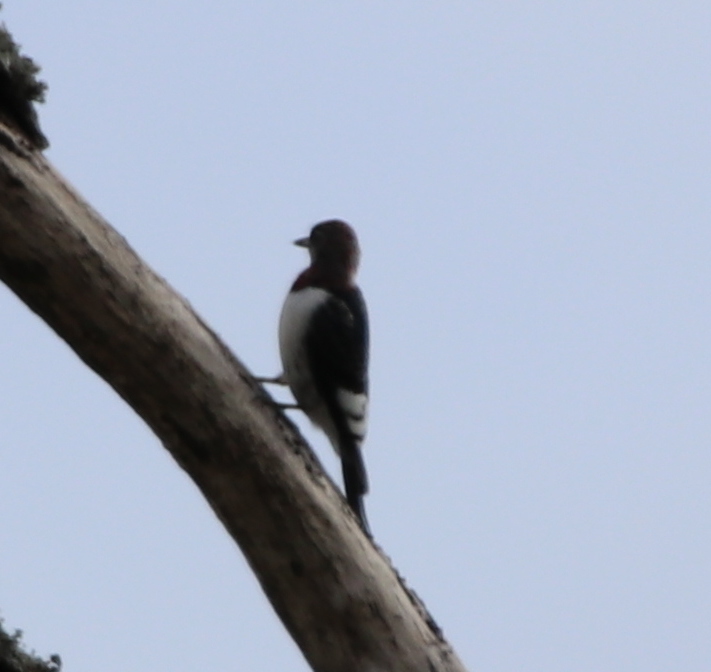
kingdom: Animalia
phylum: Chordata
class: Aves
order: Piciformes
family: Picidae
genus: Melanerpes
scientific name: Melanerpes erythrocephalus
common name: Red-headed woodpecker
